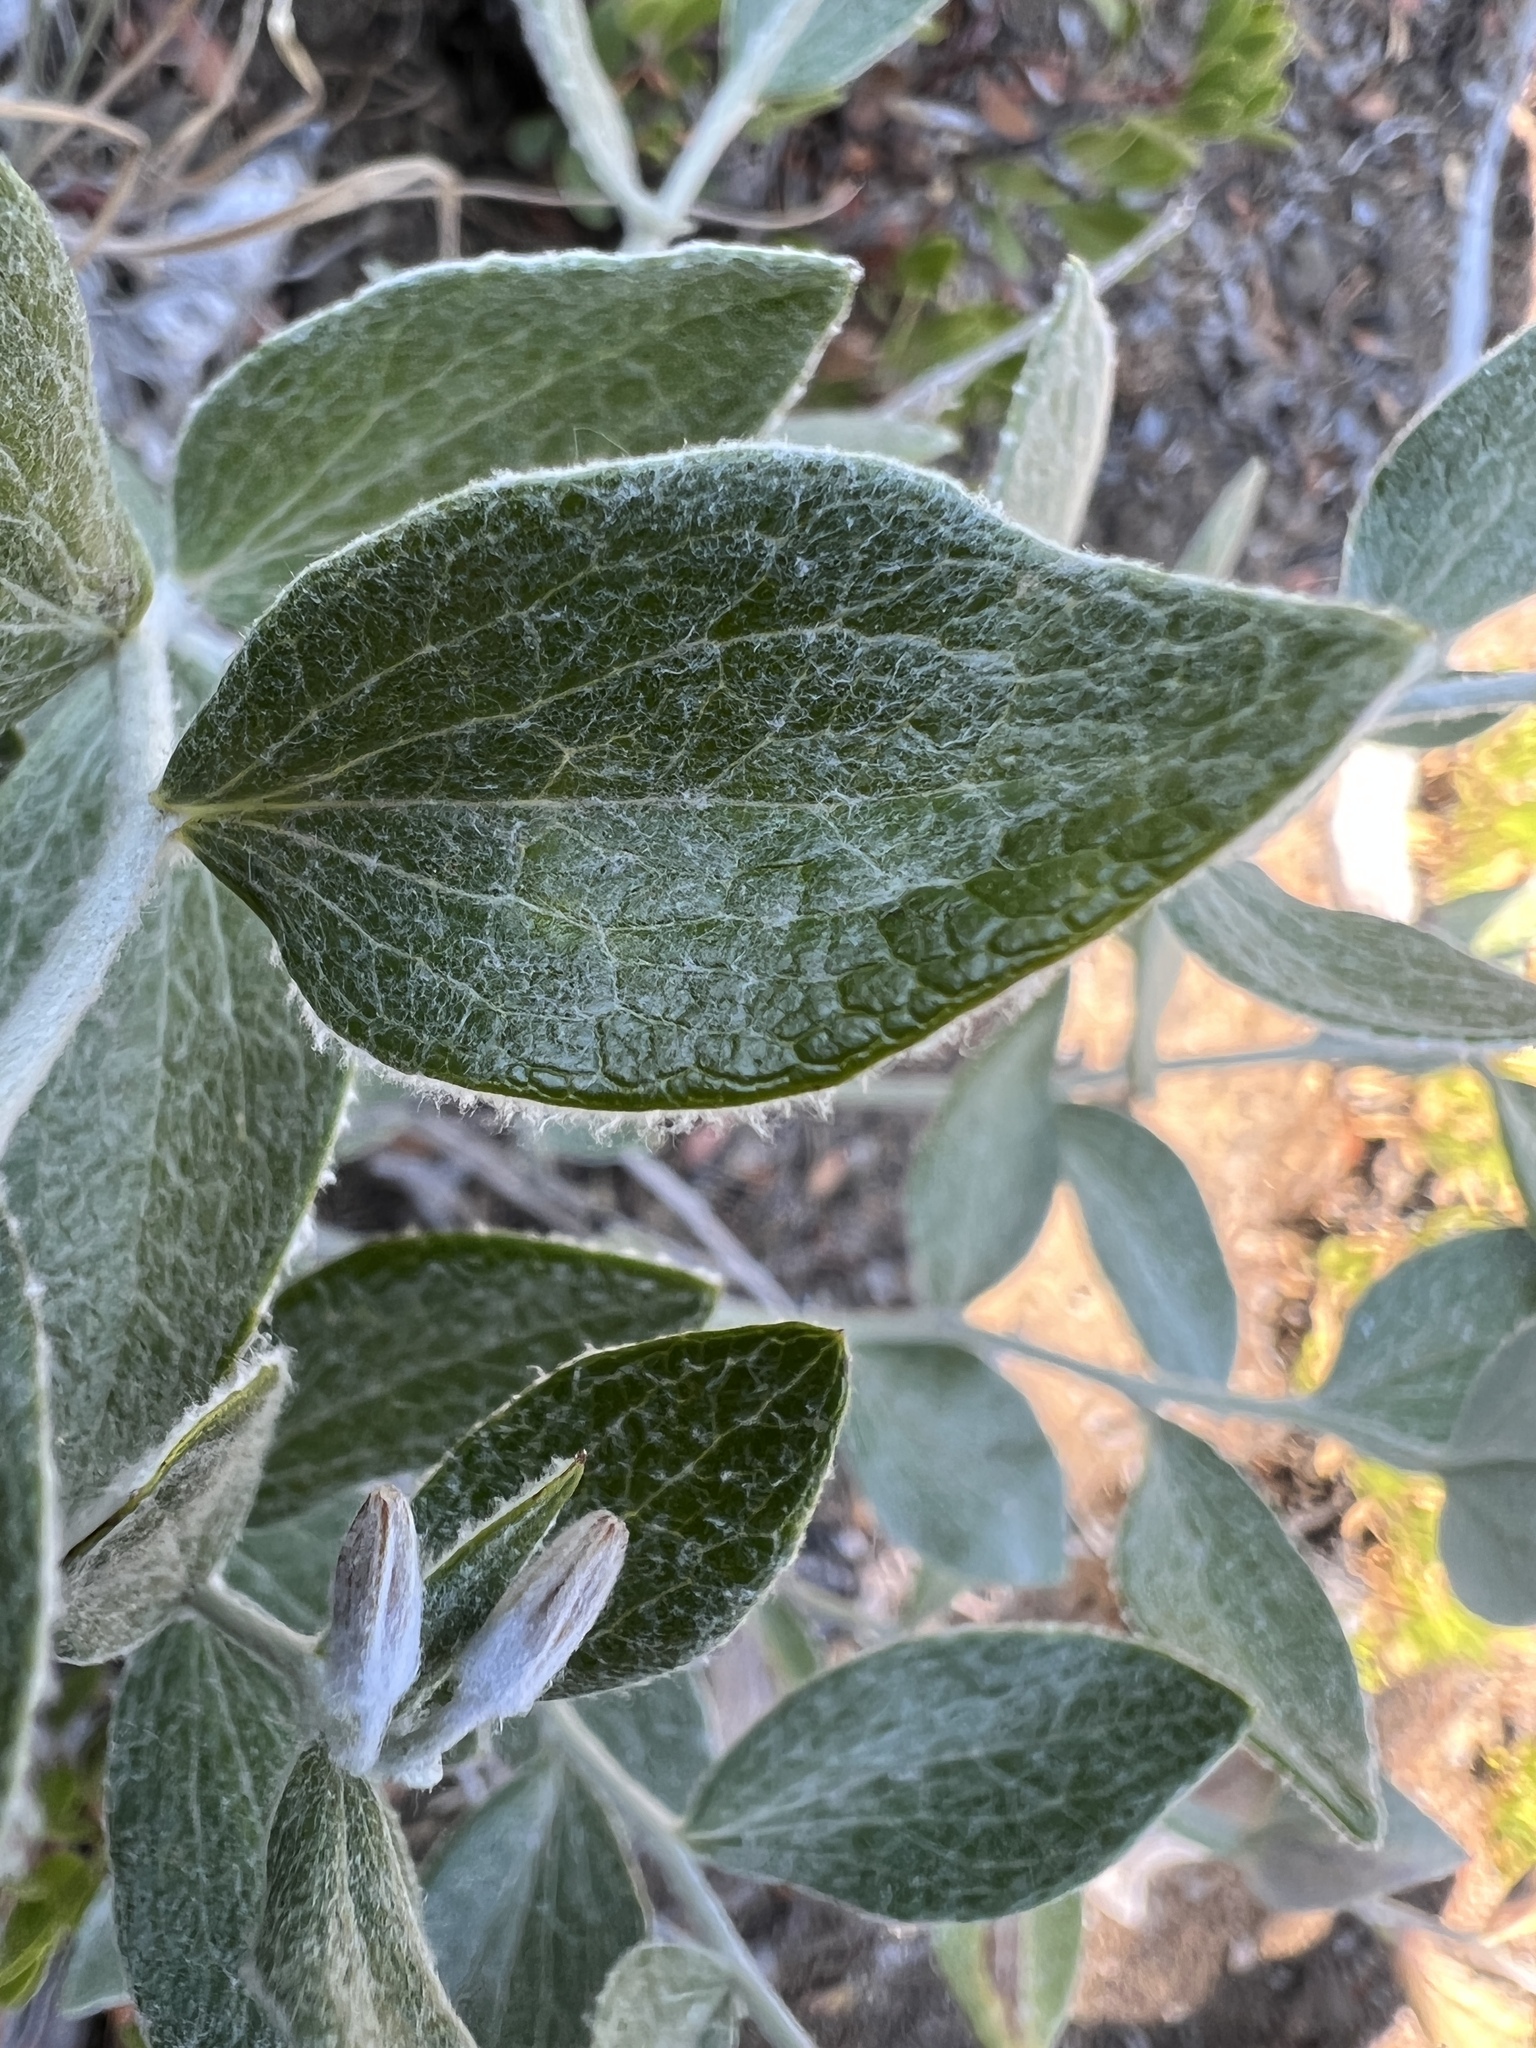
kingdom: Plantae
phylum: Tracheophyta
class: Magnoliopsida
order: Asterales
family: Asteraceae
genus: Luina
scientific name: Luina hypoleuca
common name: Little-leaved luina
